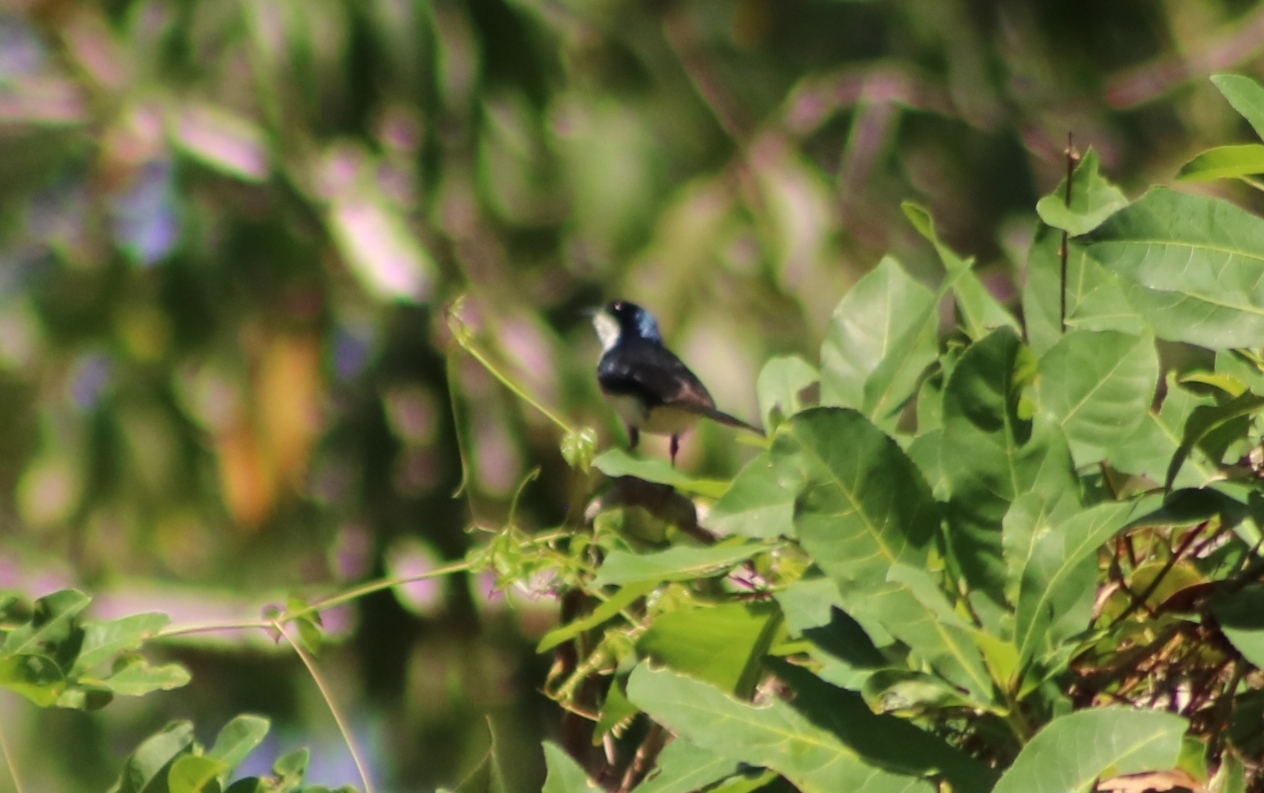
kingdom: Animalia
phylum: Chordata
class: Aves
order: Passeriformes
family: Monarchidae
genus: Myiagra
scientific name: Myiagra nana
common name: Paperbark flycatcher
